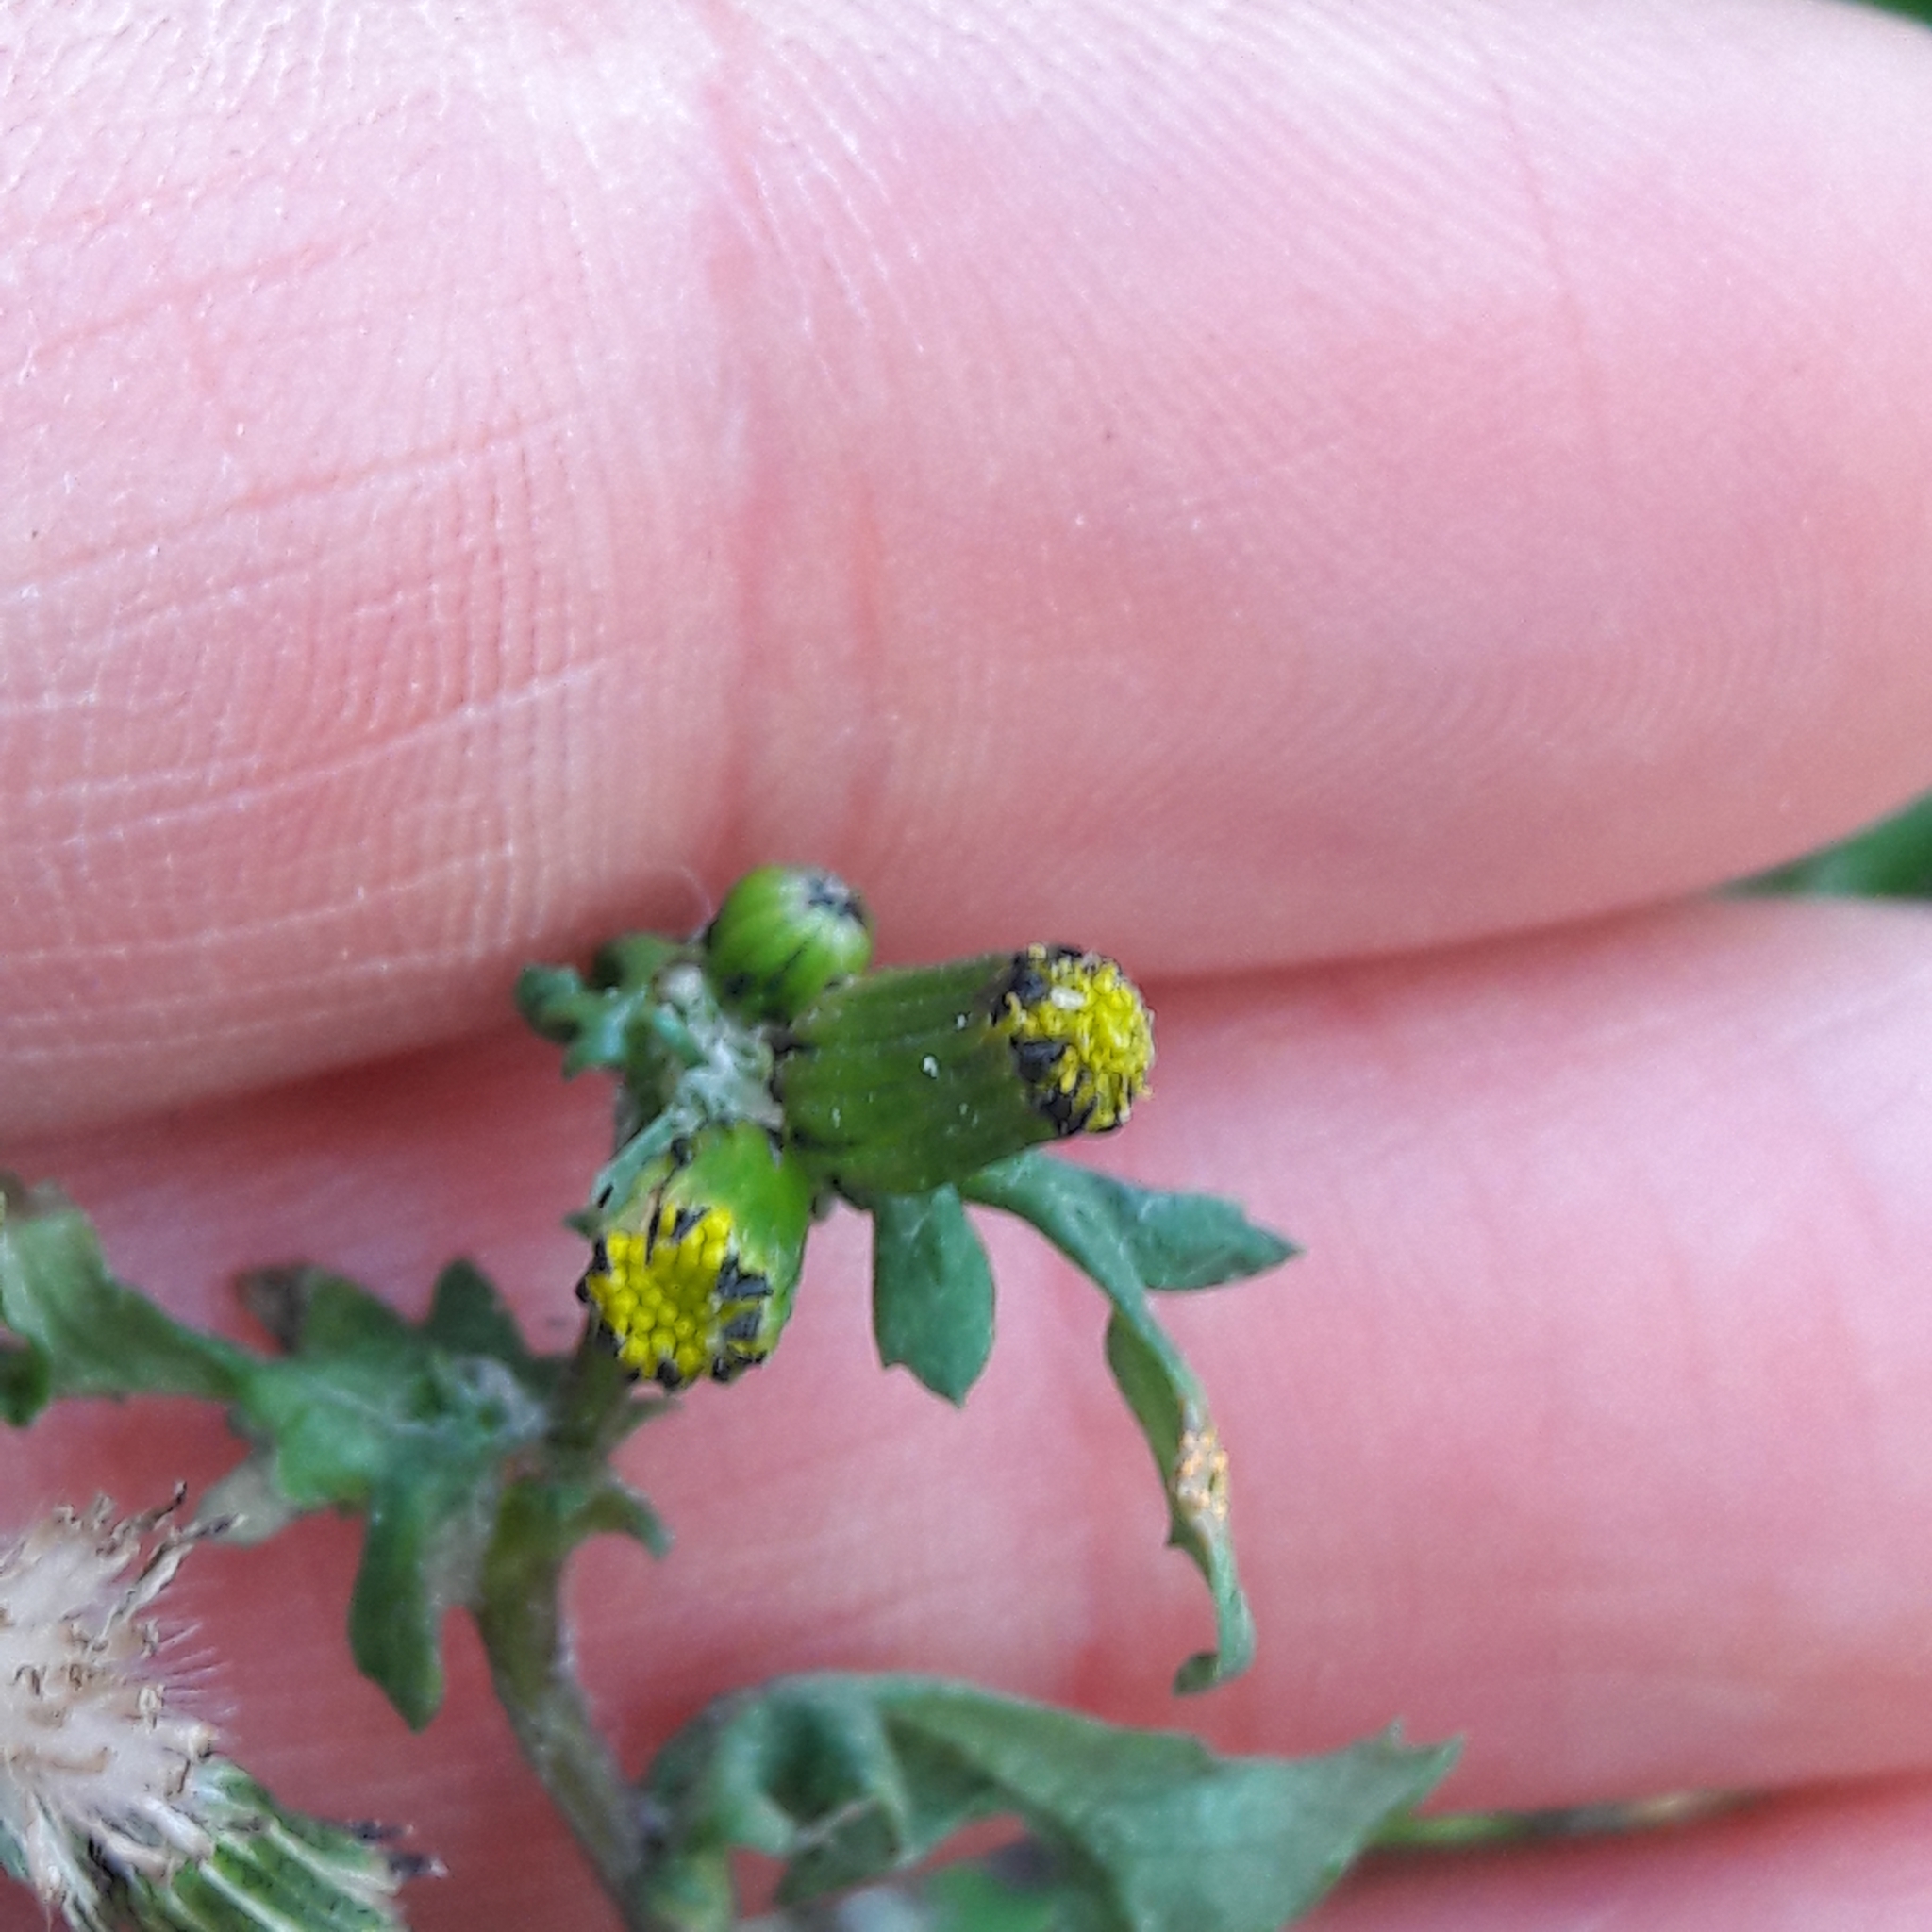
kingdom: Plantae
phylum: Tracheophyta
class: Magnoliopsida
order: Asterales
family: Asteraceae
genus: Senecio
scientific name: Senecio vulgaris
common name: Old-man-in-the-spring
